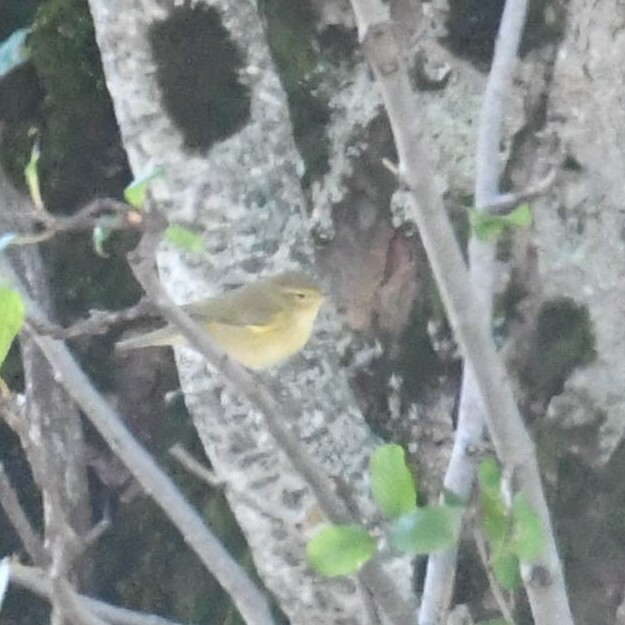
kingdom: Animalia
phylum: Chordata
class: Aves
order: Passeriformes
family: Phylloscopidae
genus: Phylloscopus
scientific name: Phylloscopus collybita
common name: Common chiffchaff
